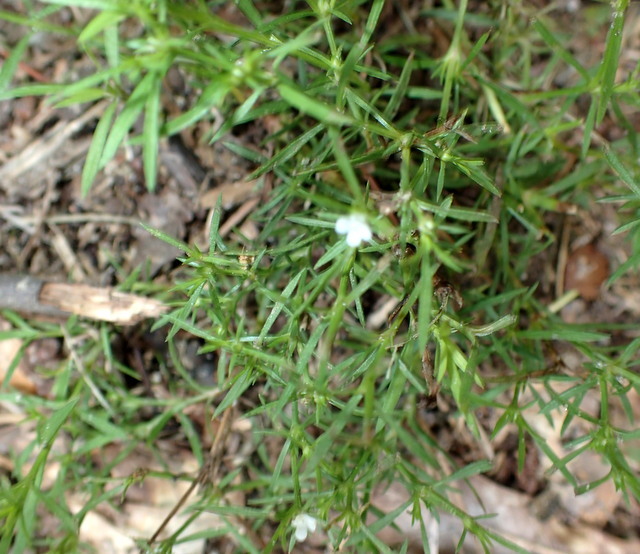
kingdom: Plantae
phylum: Tracheophyta
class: Magnoliopsida
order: Lamiales
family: Tetrachondraceae
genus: Polypremum
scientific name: Polypremum procumbens
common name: Juniper-leaf
